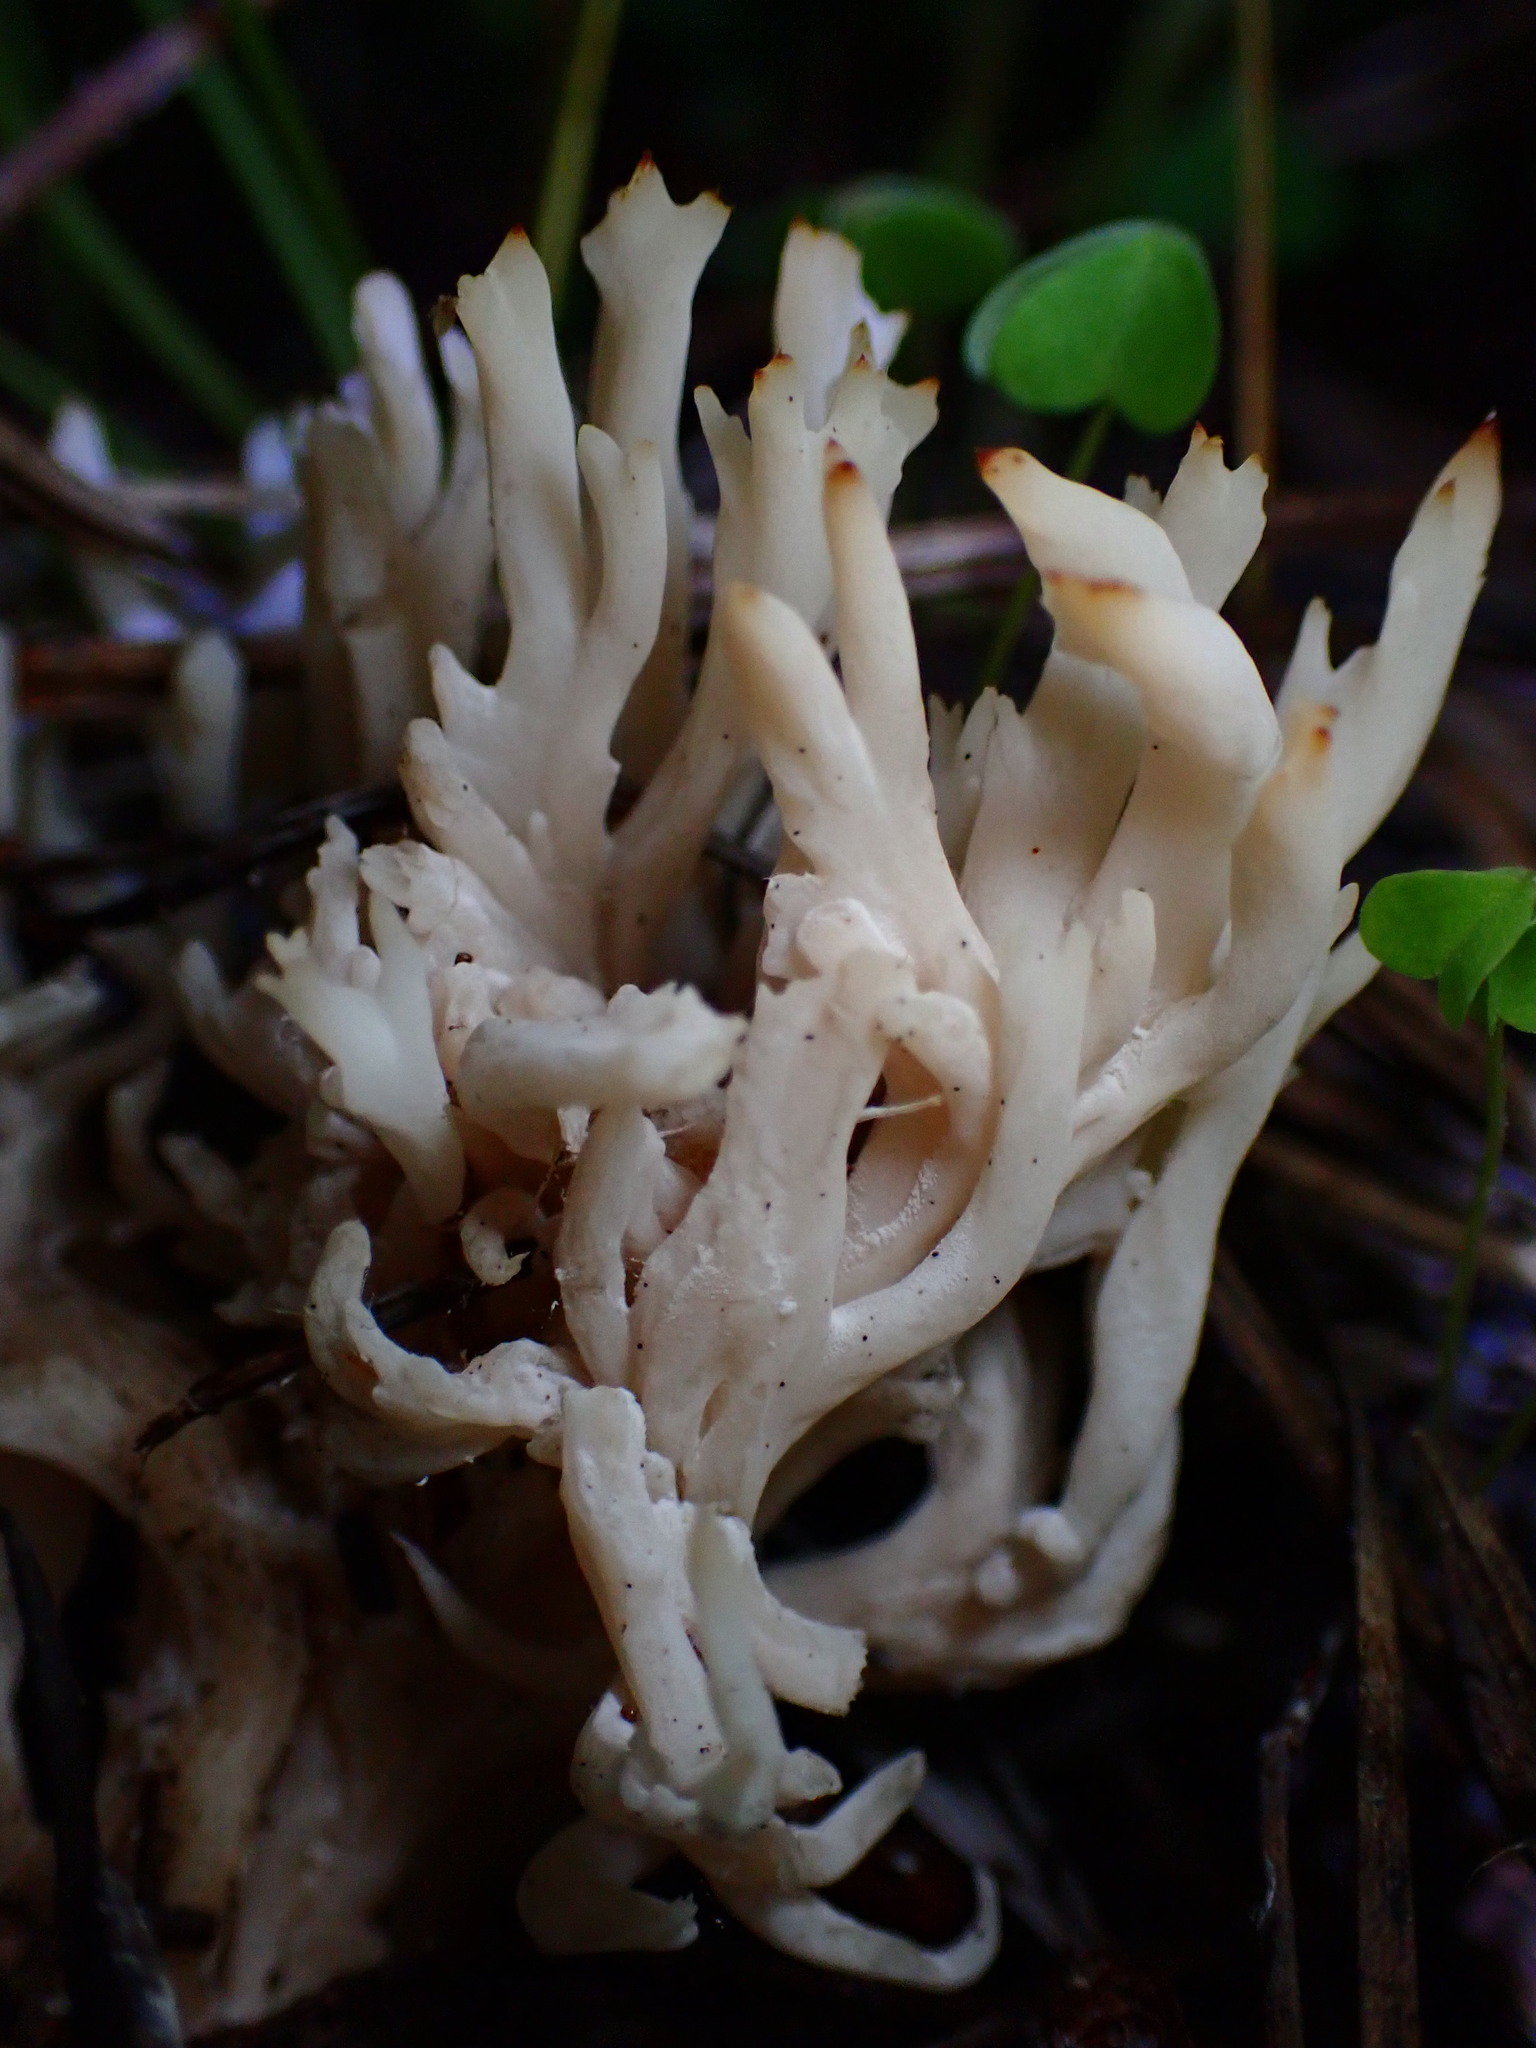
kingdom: Fungi
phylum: Basidiomycota
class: Agaricomycetes
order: Cantharellales
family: Hydnaceae
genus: Clavulina
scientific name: Clavulina rugosa
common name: Wrinkled club
